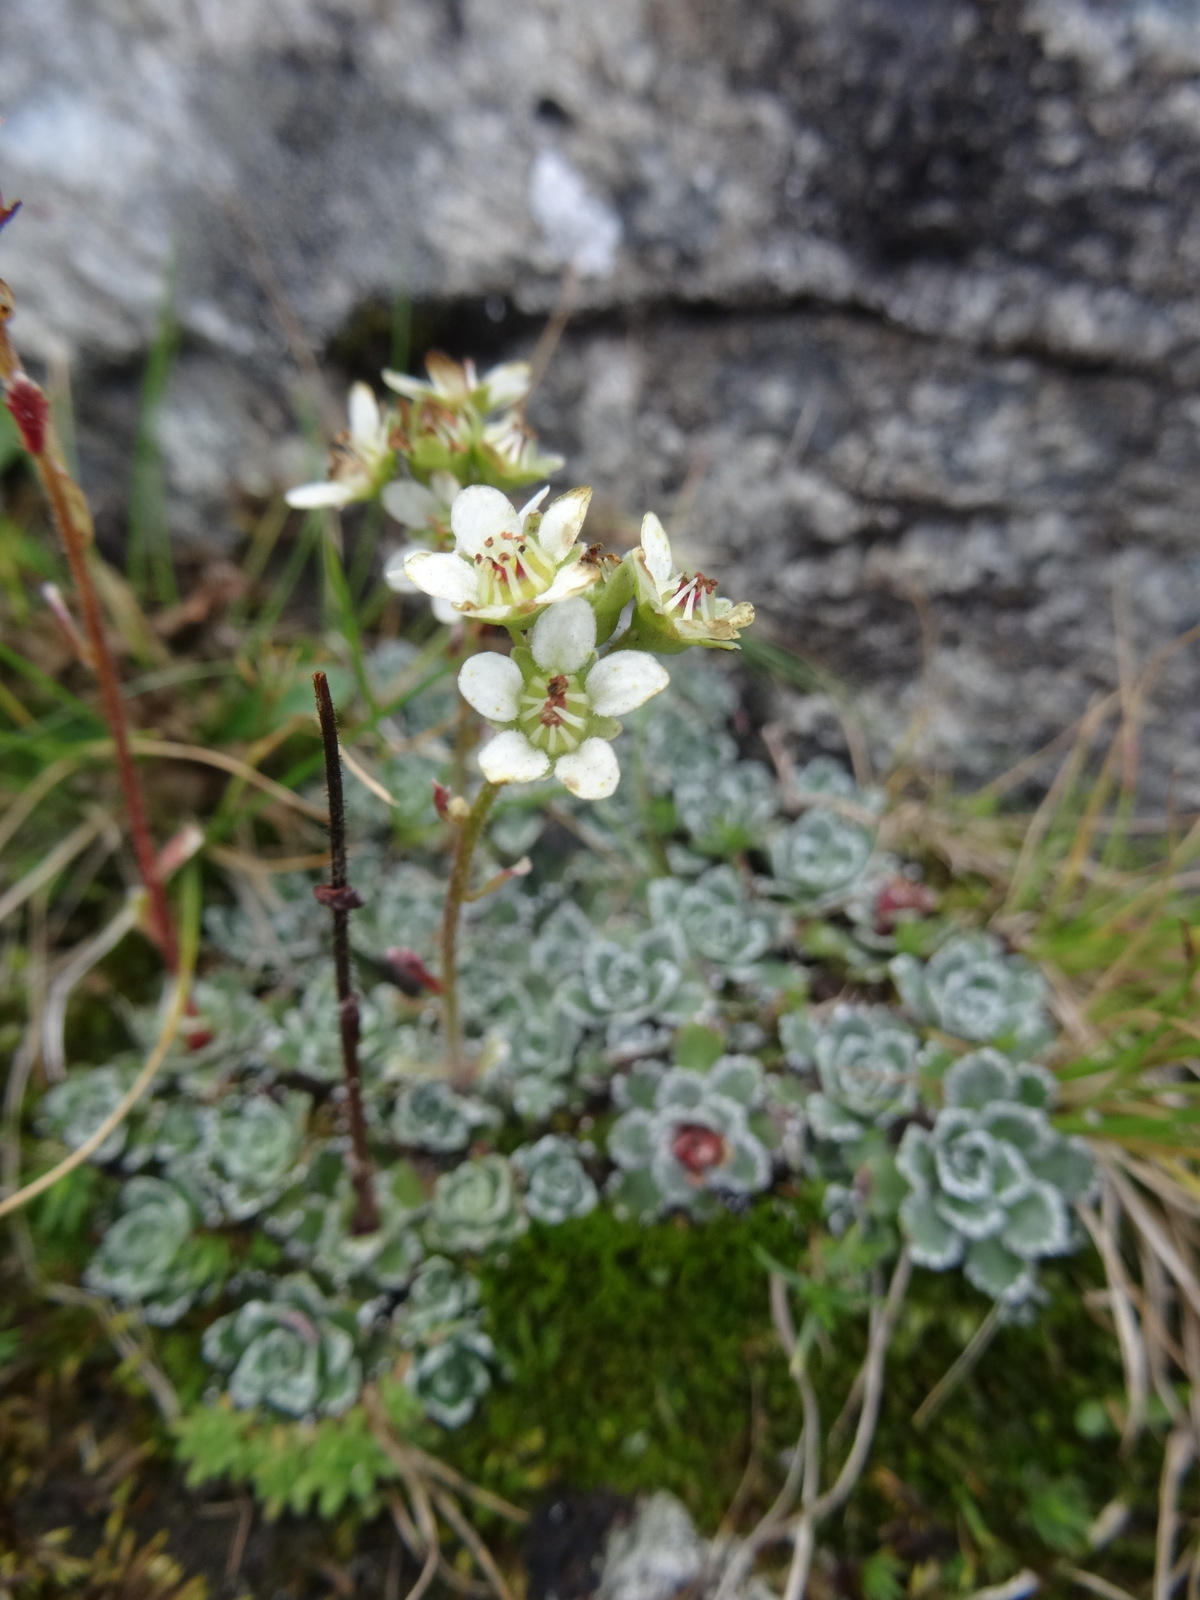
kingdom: Plantae
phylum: Tracheophyta
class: Magnoliopsida
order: Saxifragales
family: Saxifragaceae
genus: Saxifraga
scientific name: Saxifraga paniculata
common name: Livelong saxifrage
